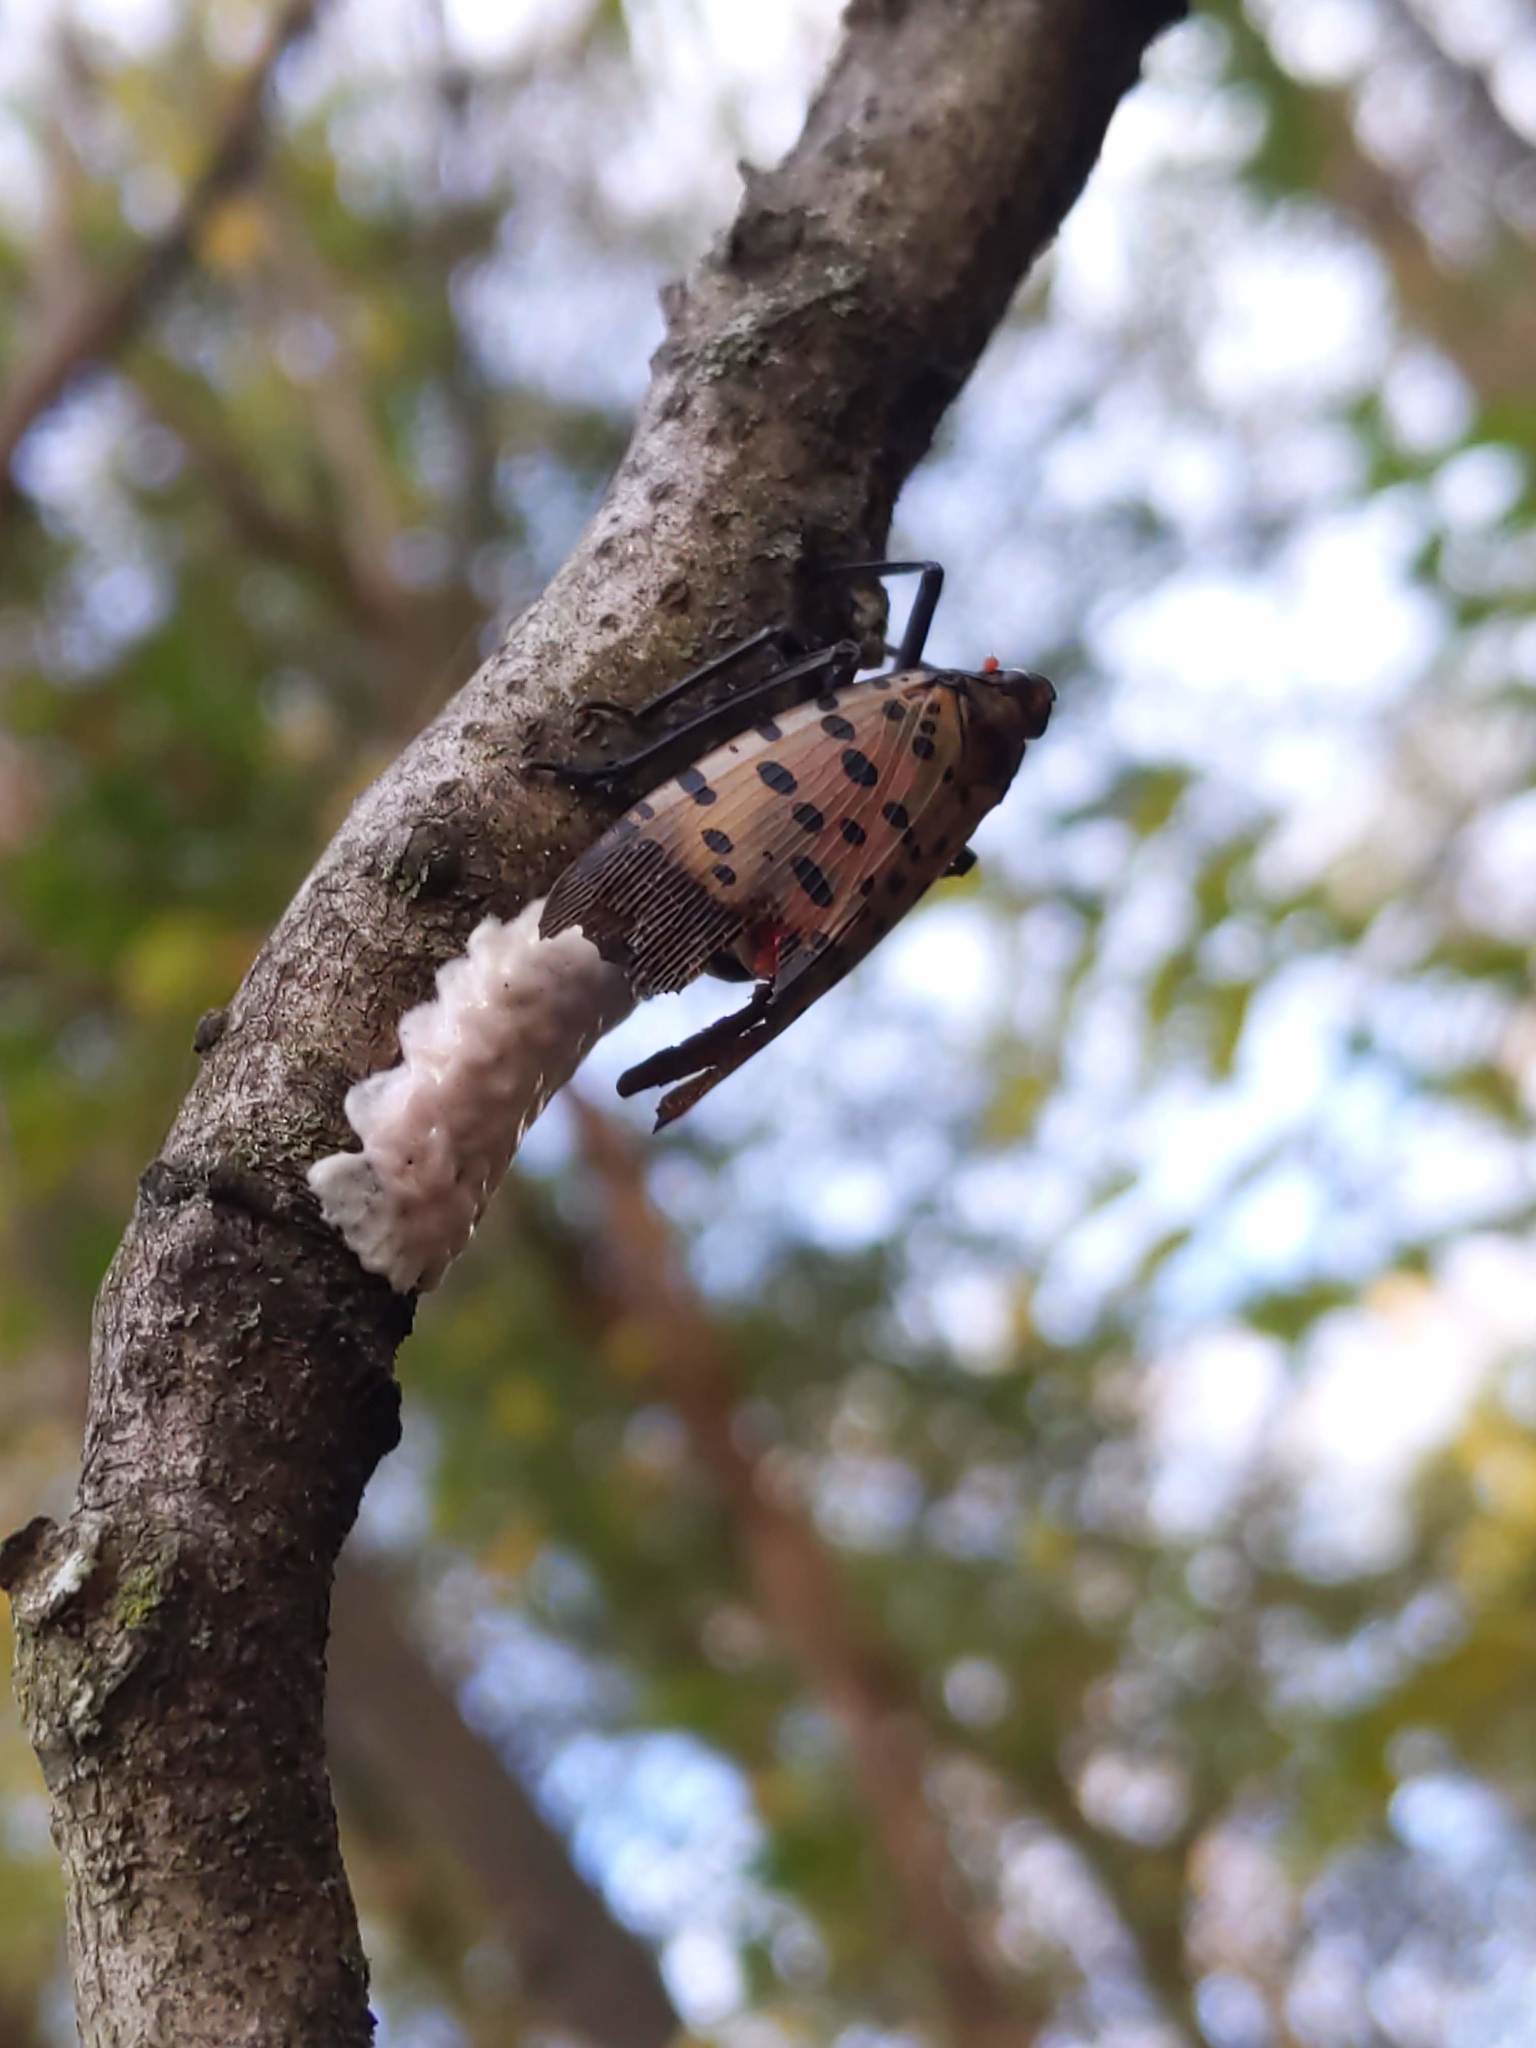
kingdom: Animalia
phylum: Arthropoda
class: Insecta
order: Hemiptera
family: Fulgoridae
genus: Lycorma
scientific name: Lycorma delicatula
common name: Spotted lanternfly
